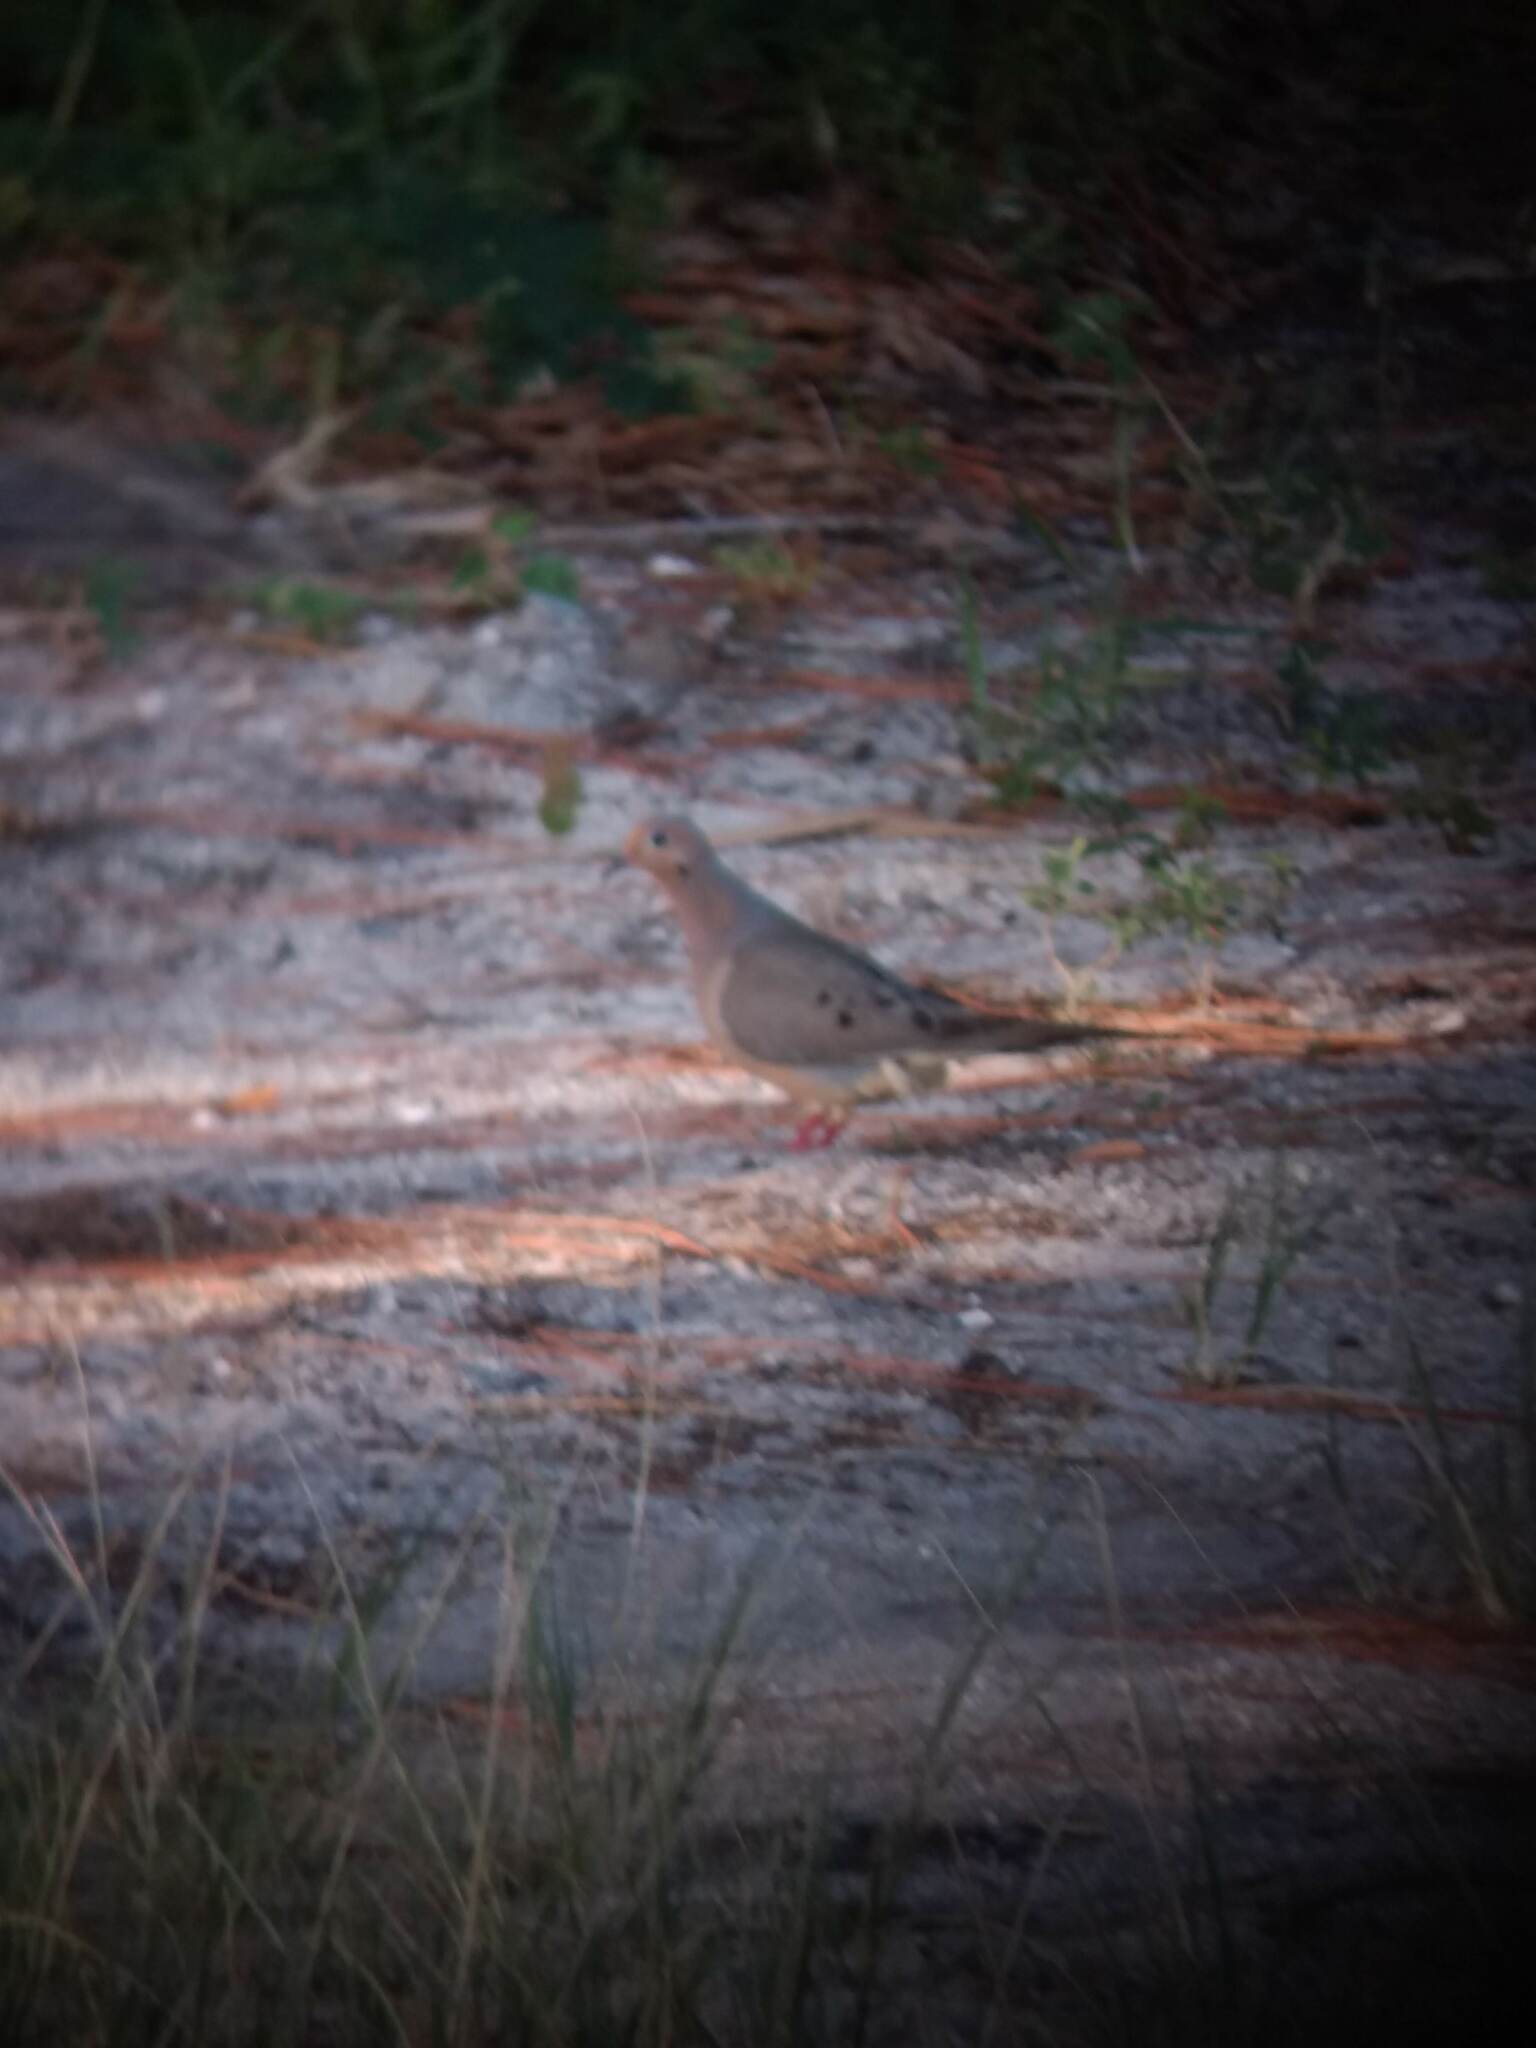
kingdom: Animalia
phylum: Chordata
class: Aves
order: Columbiformes
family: Columbidae
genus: Zenaida
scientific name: Zenaida macroura
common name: Mourning dove
